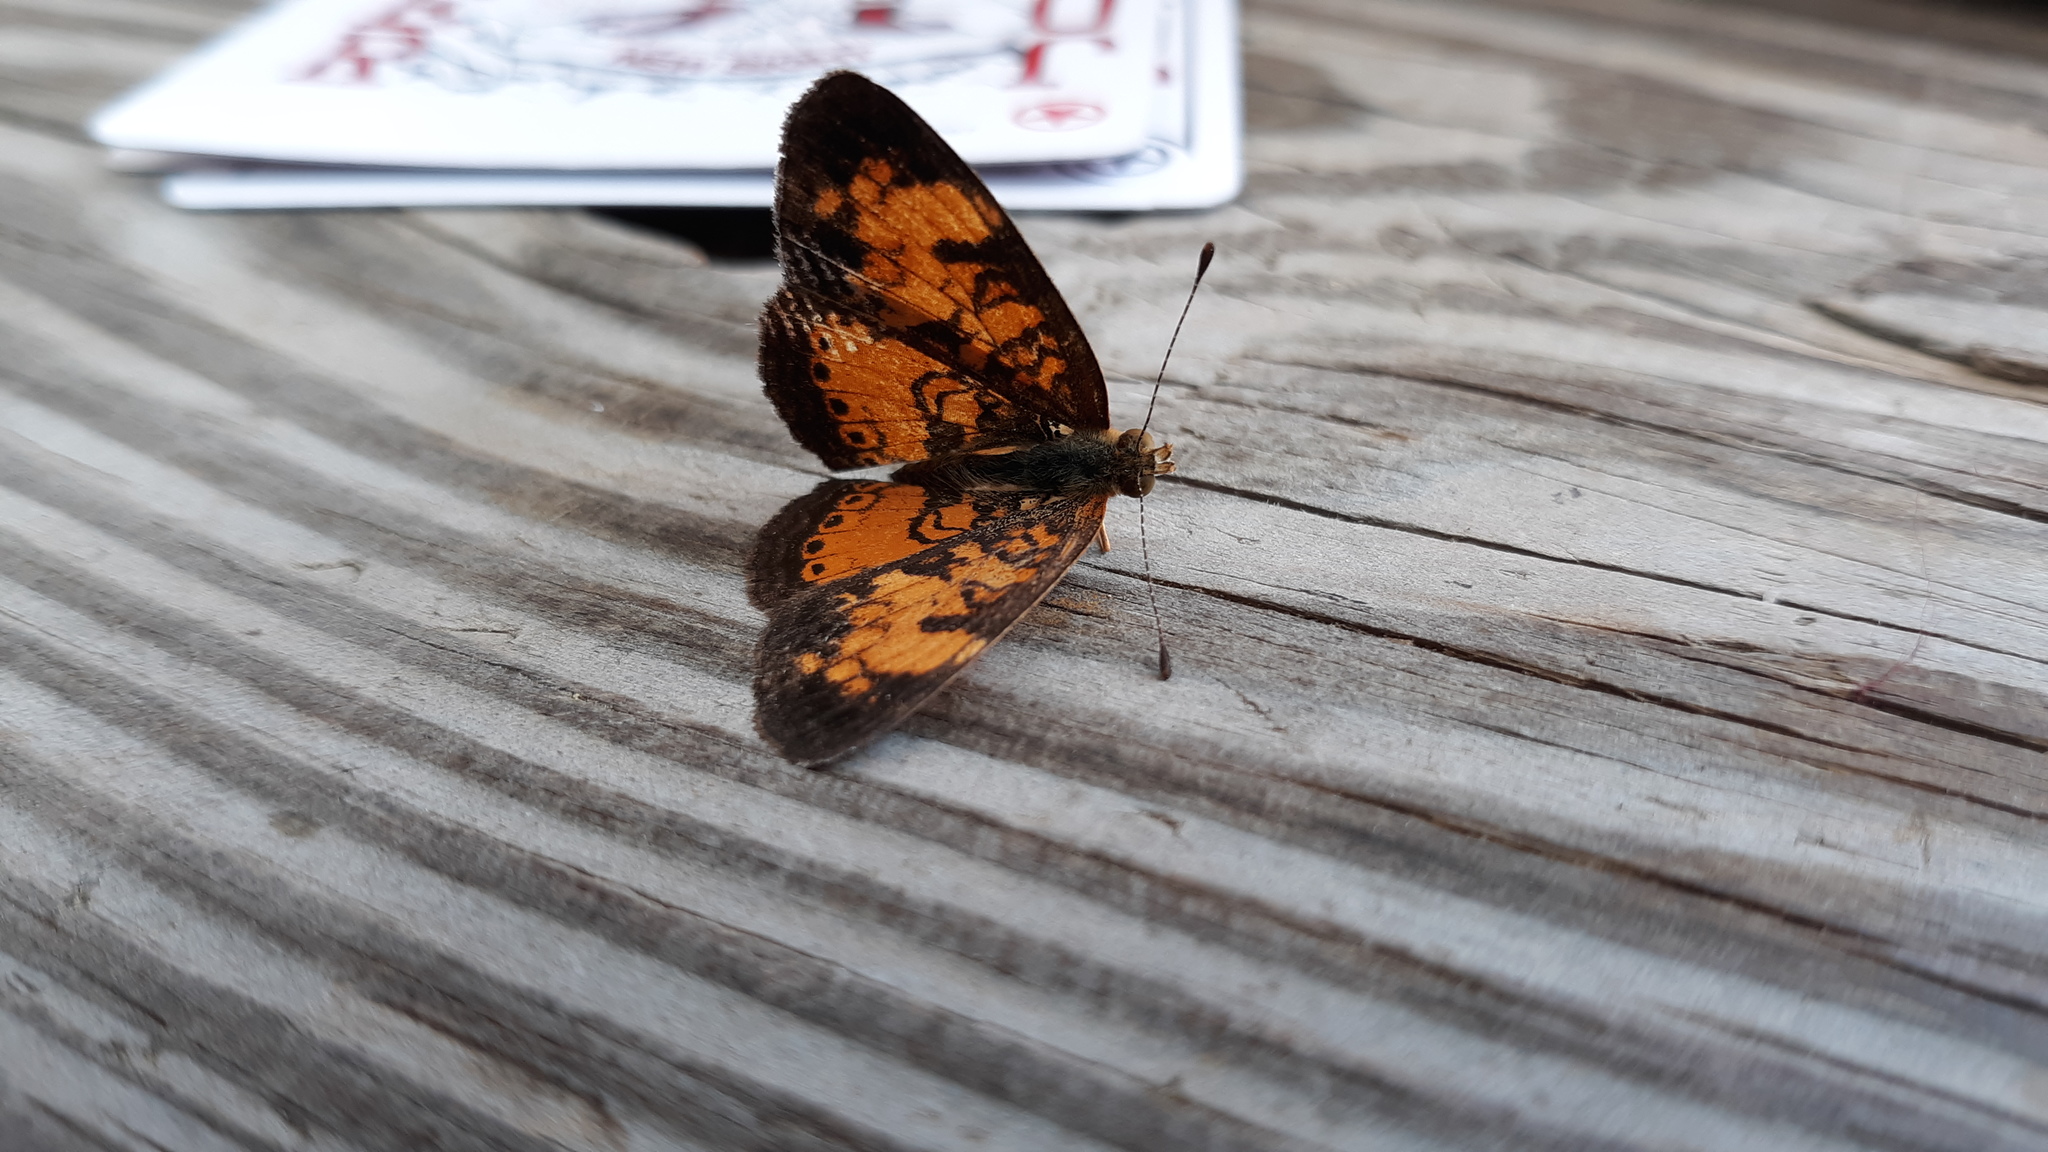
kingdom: Animalia
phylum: Arthropoda
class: Insecta
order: Lepidoptera
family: Nymphalidae
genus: Phyciodes
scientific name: Phyciodes tharos
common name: Pearl crescent
